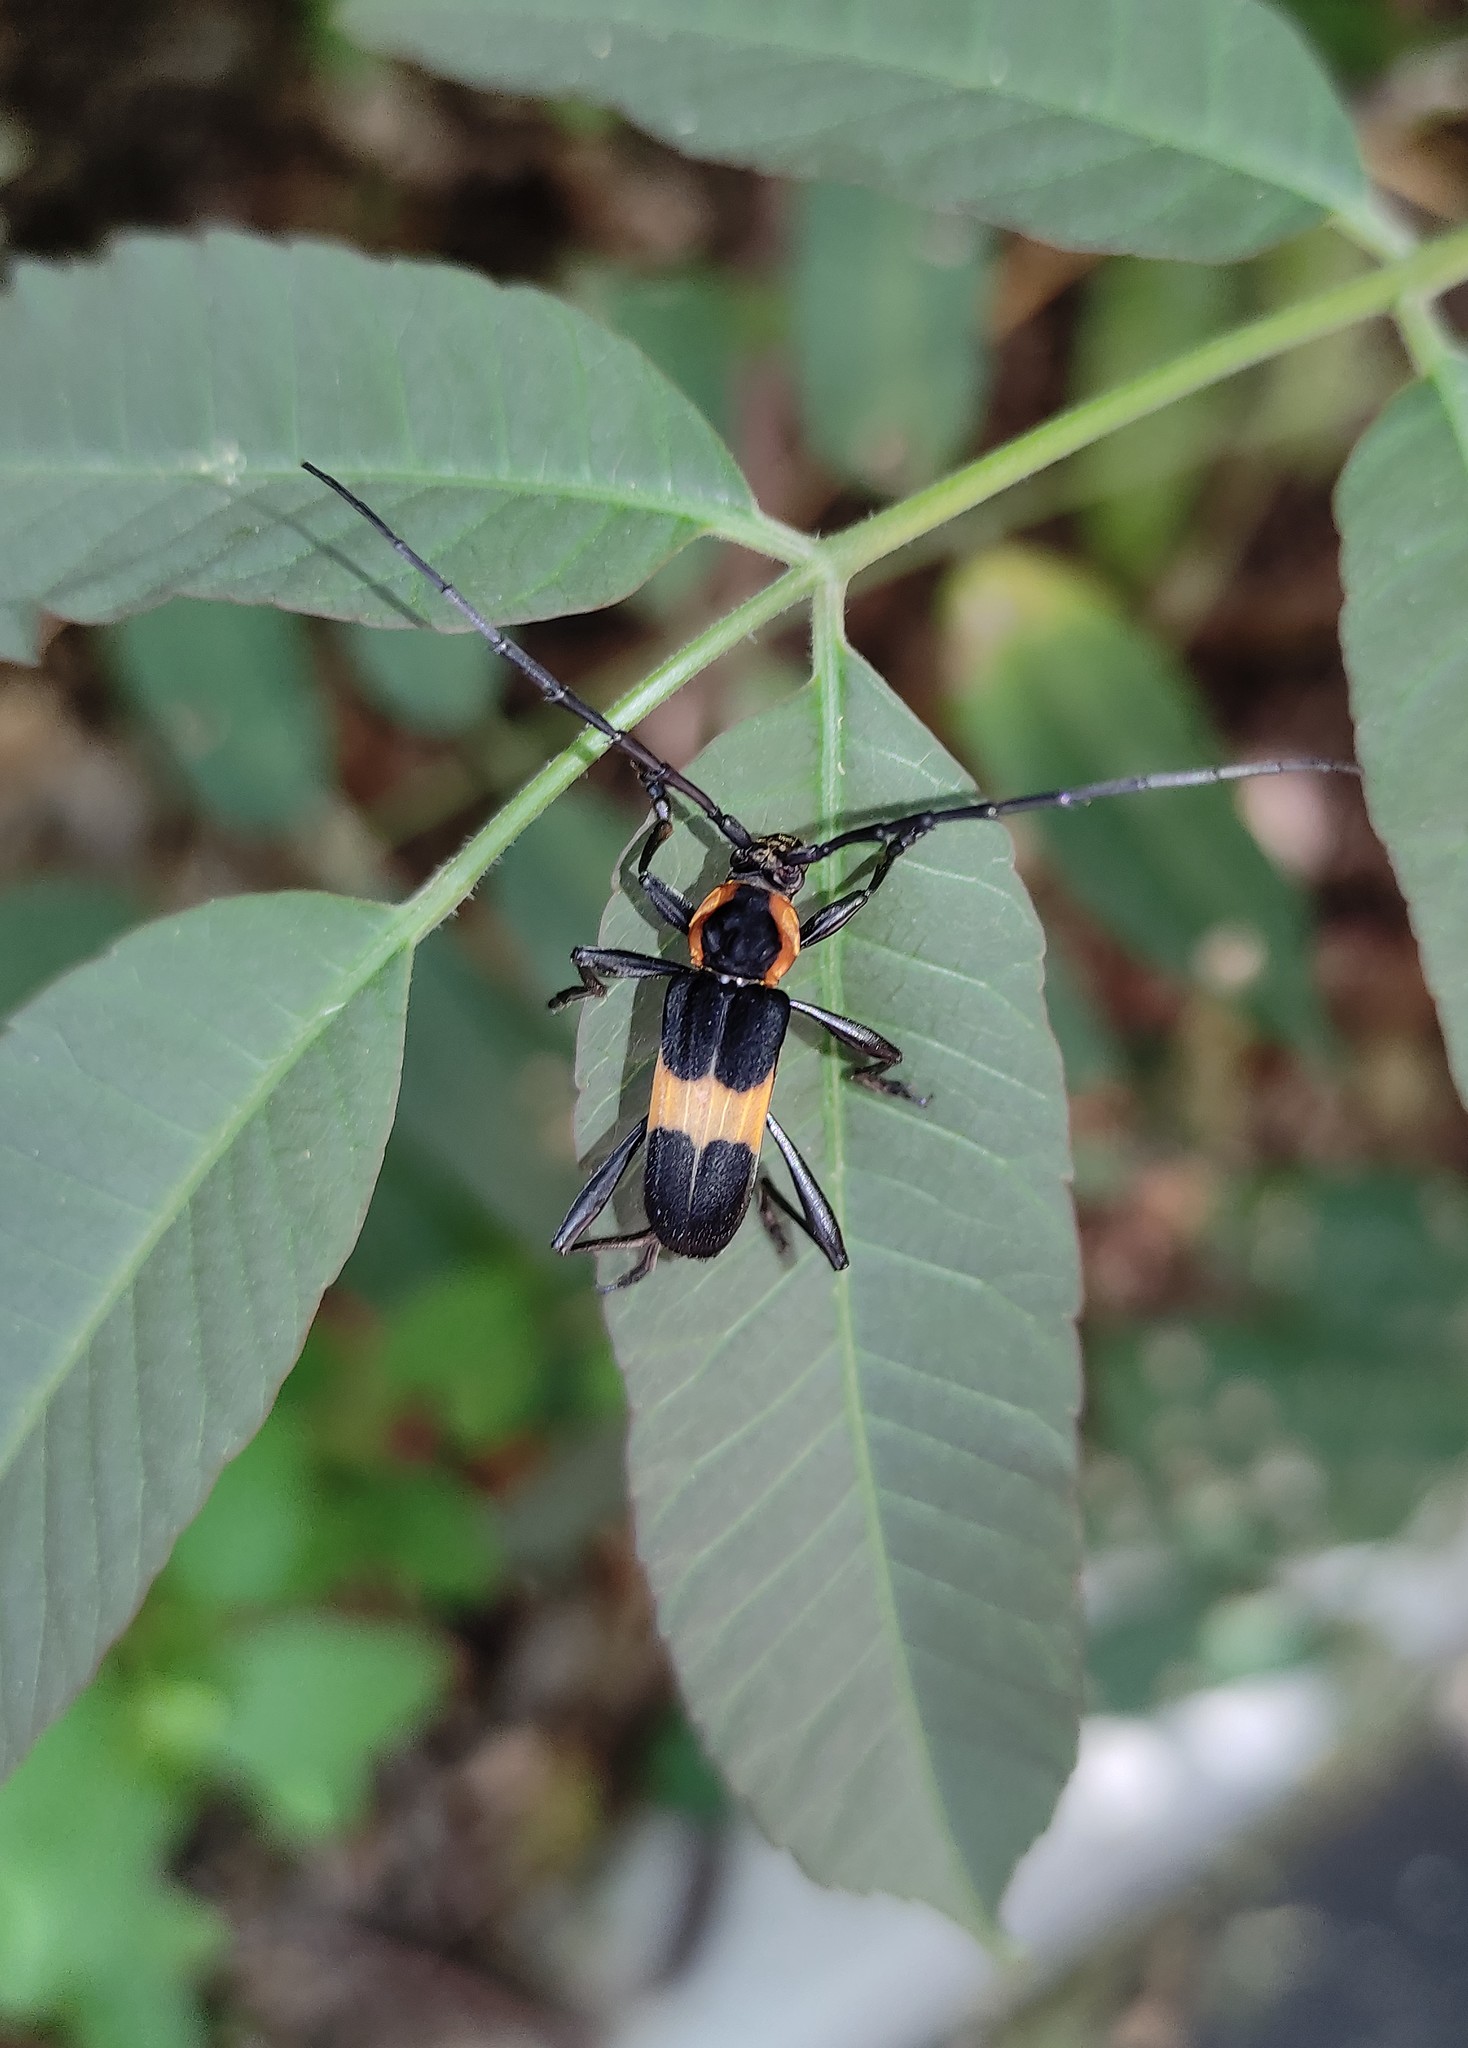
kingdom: Animalia
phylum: Arthropoda
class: Insecta
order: Coleoptera
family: Cerambycidae
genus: Mallosoma
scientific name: Mallosoma zonatum
